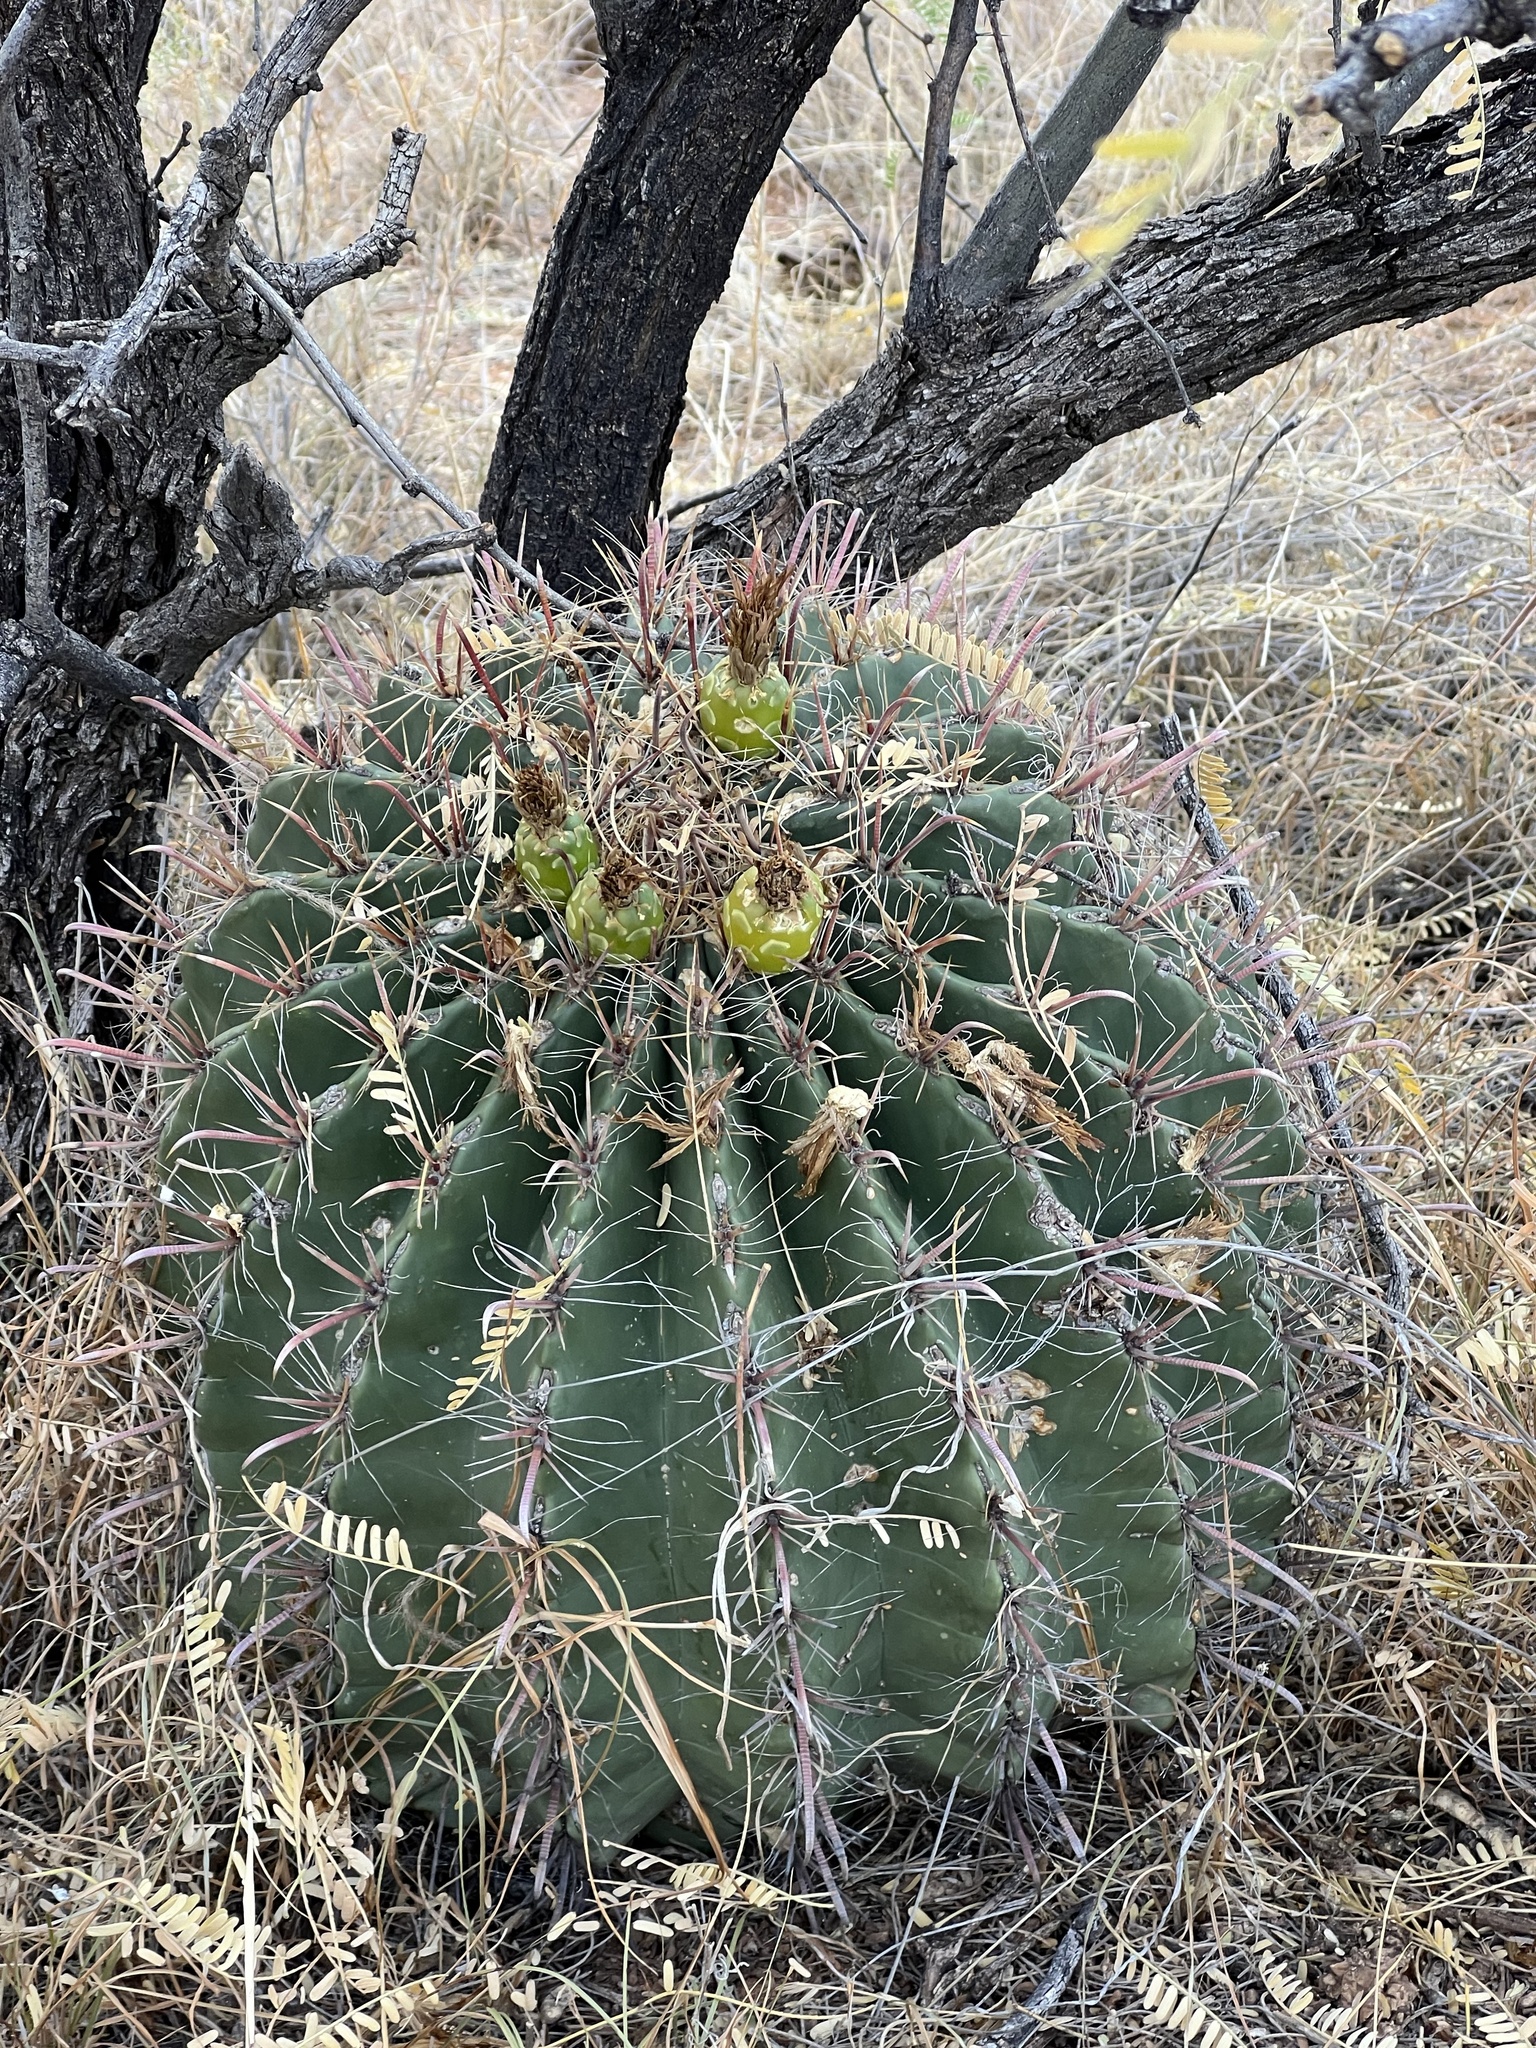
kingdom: Plantae
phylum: Tracheophyta
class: Magnoliopsida
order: Caryophyllales
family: Cactaceae
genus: Ferocactus
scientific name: Ferocactus wislizeni
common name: Candy barrel cactus
